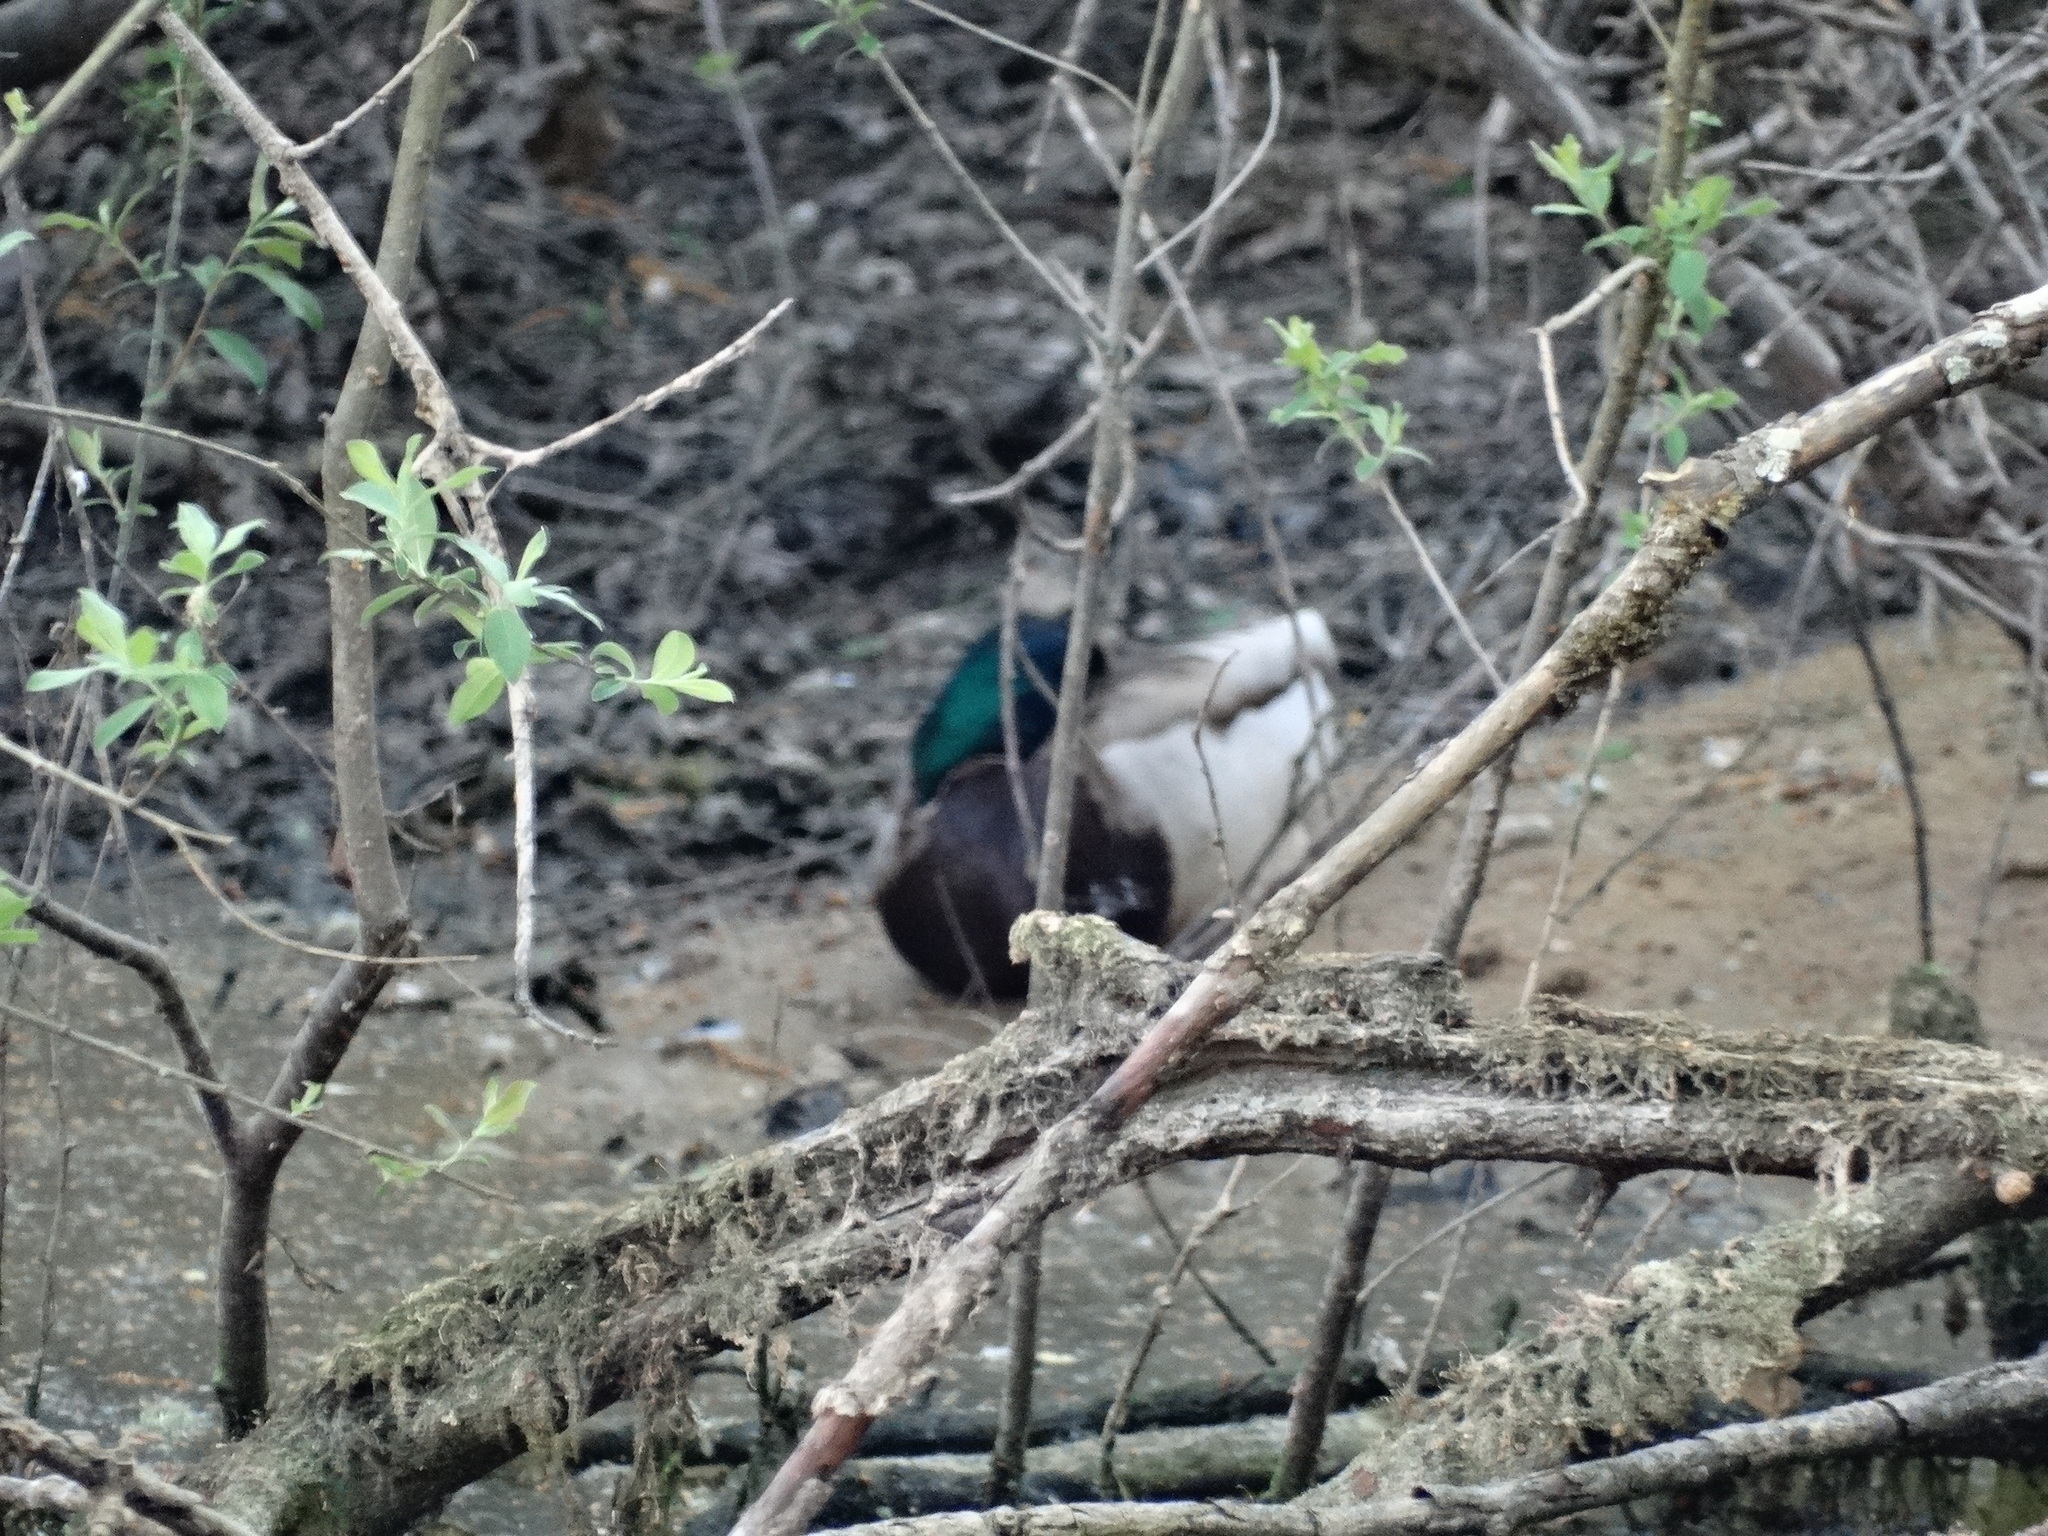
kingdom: Animalia
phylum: Chordata
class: Aves
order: Anseriformes
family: Anatidae
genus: Anas
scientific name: Anas platyrhynchos
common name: Mallard
